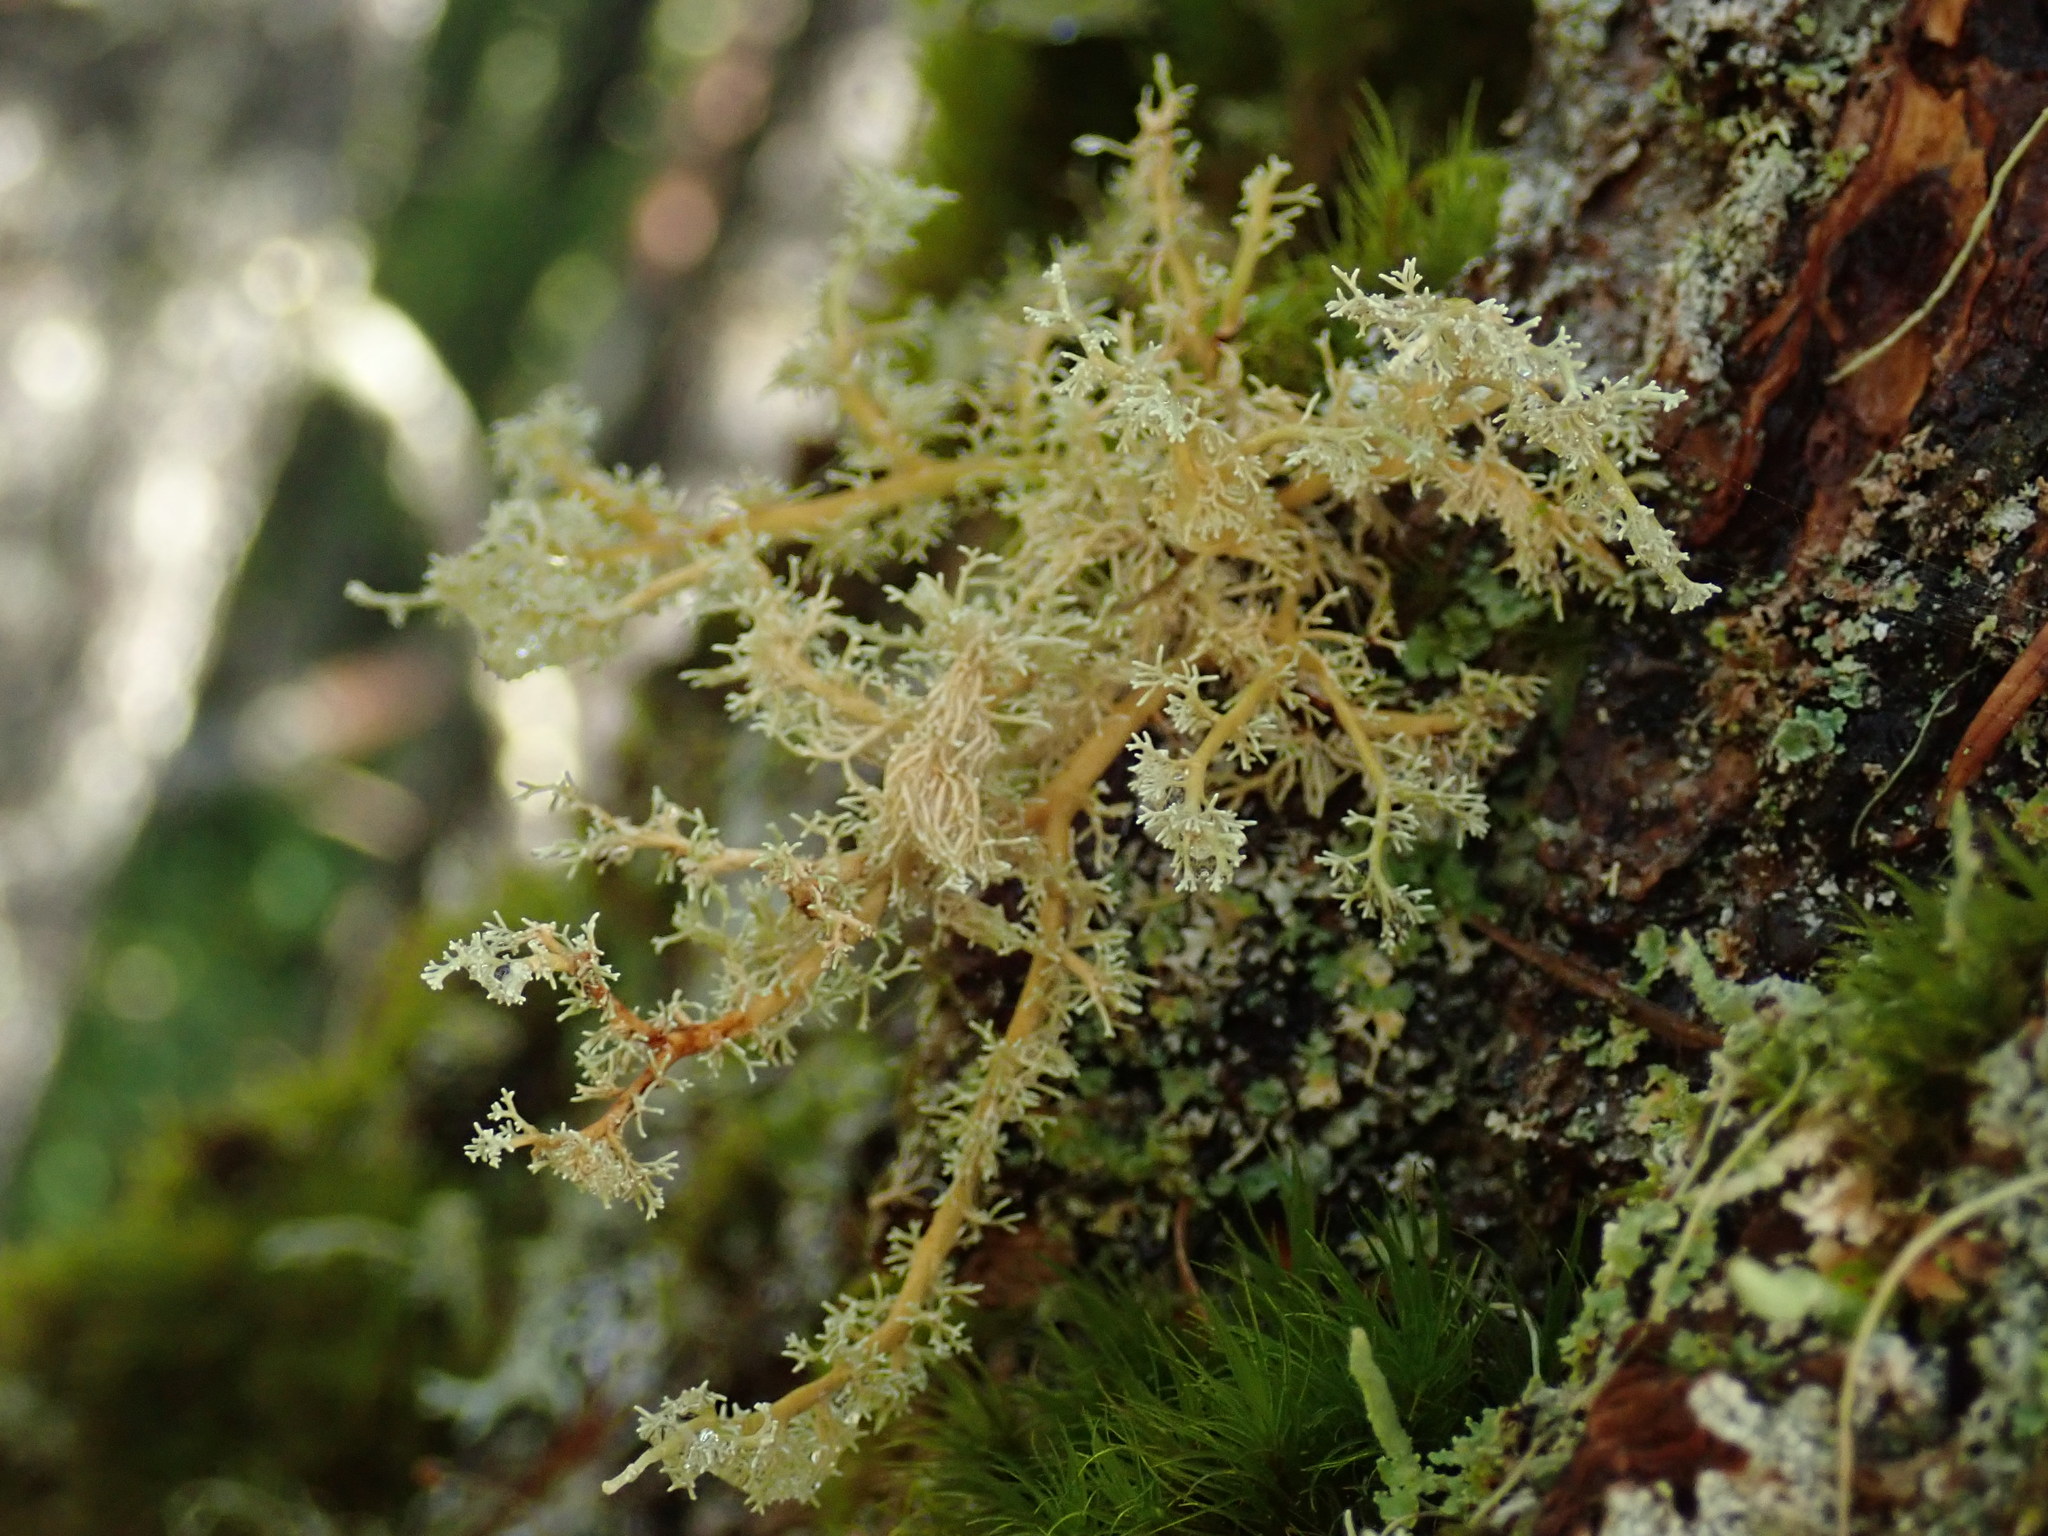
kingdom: Fungi
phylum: Ascomycota
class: Lecanoromycetes
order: Lecanorales
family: Sphaerophoraceae
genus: Sphaerophorus
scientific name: Sphaerophorus globosus
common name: Globe ball lichen
